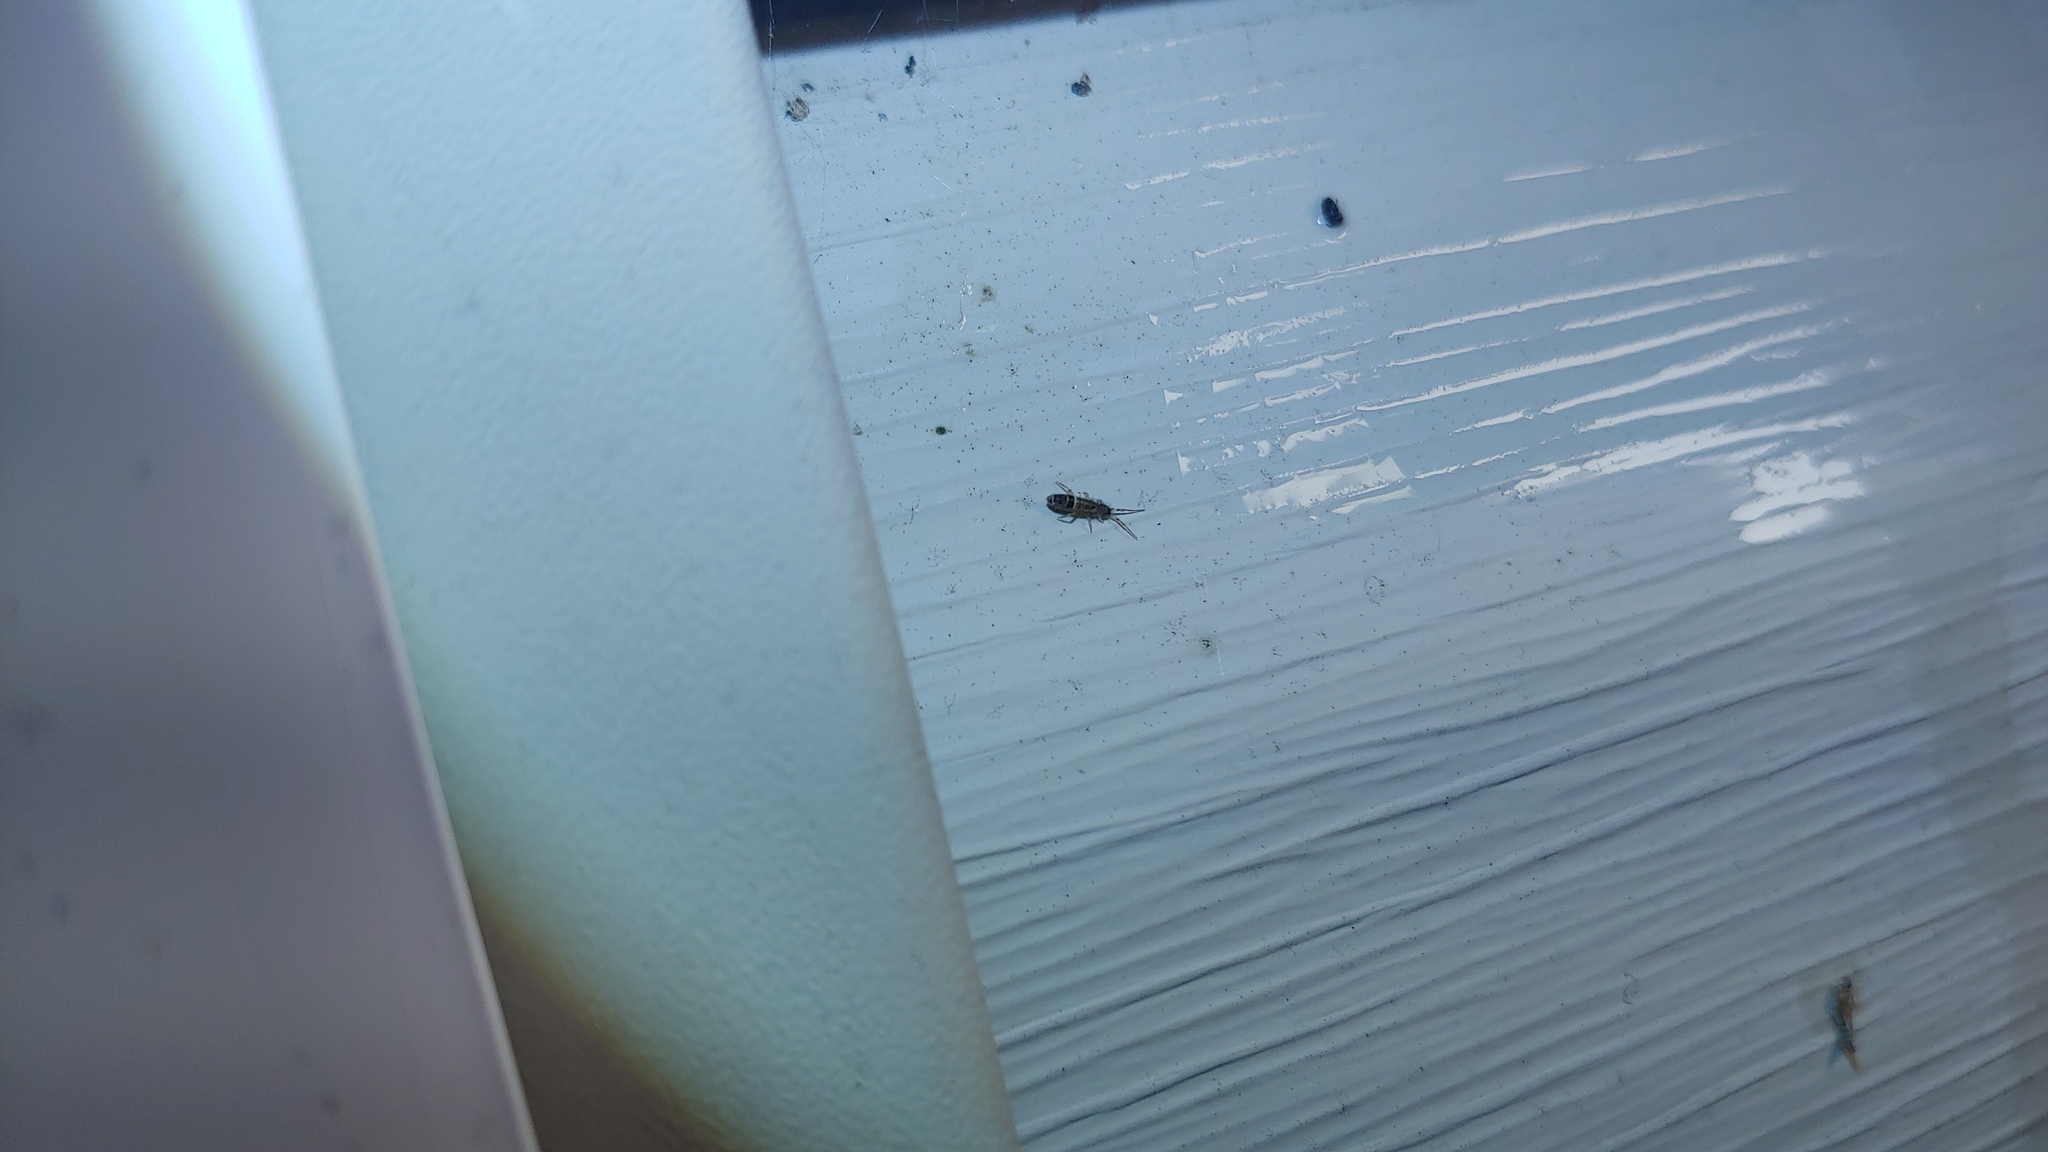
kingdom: Animalia
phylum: Arthropoda
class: Collembola
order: Entomobryomorpha
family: Orchesellidae
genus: Orchesella
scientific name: Orchesella cincta
